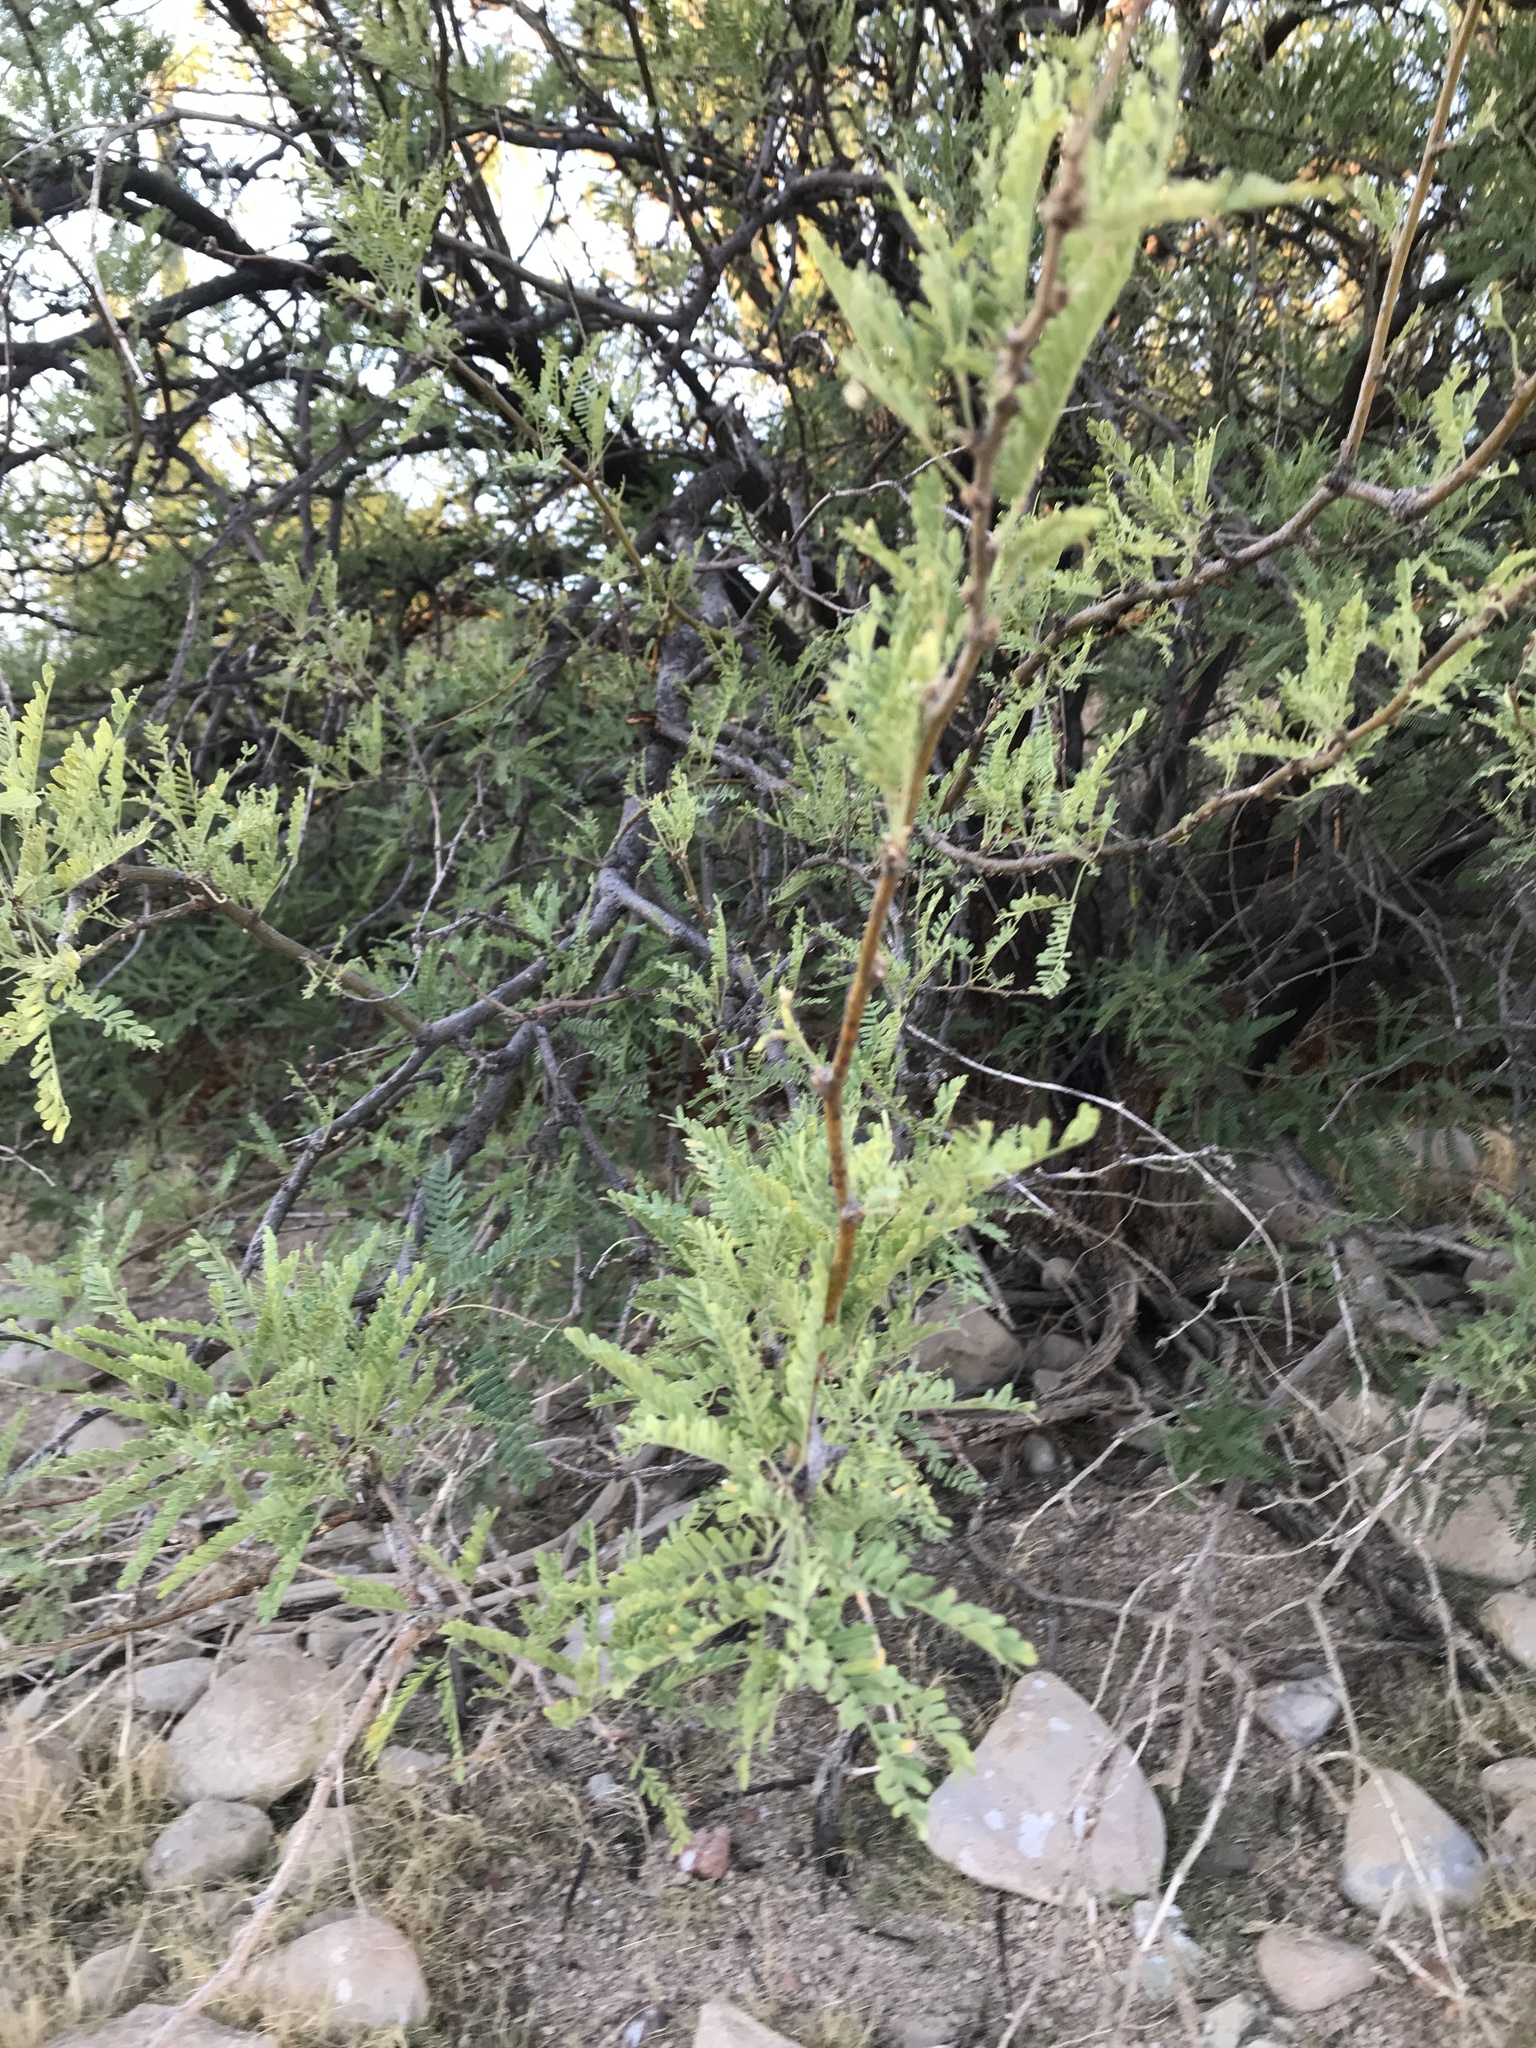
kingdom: Plantae
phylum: Tracheophyta
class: Magnoliopsida
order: Fabales
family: Fabaceae
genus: Prosopis
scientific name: Prosopis velutina
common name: Velvet mesquite
